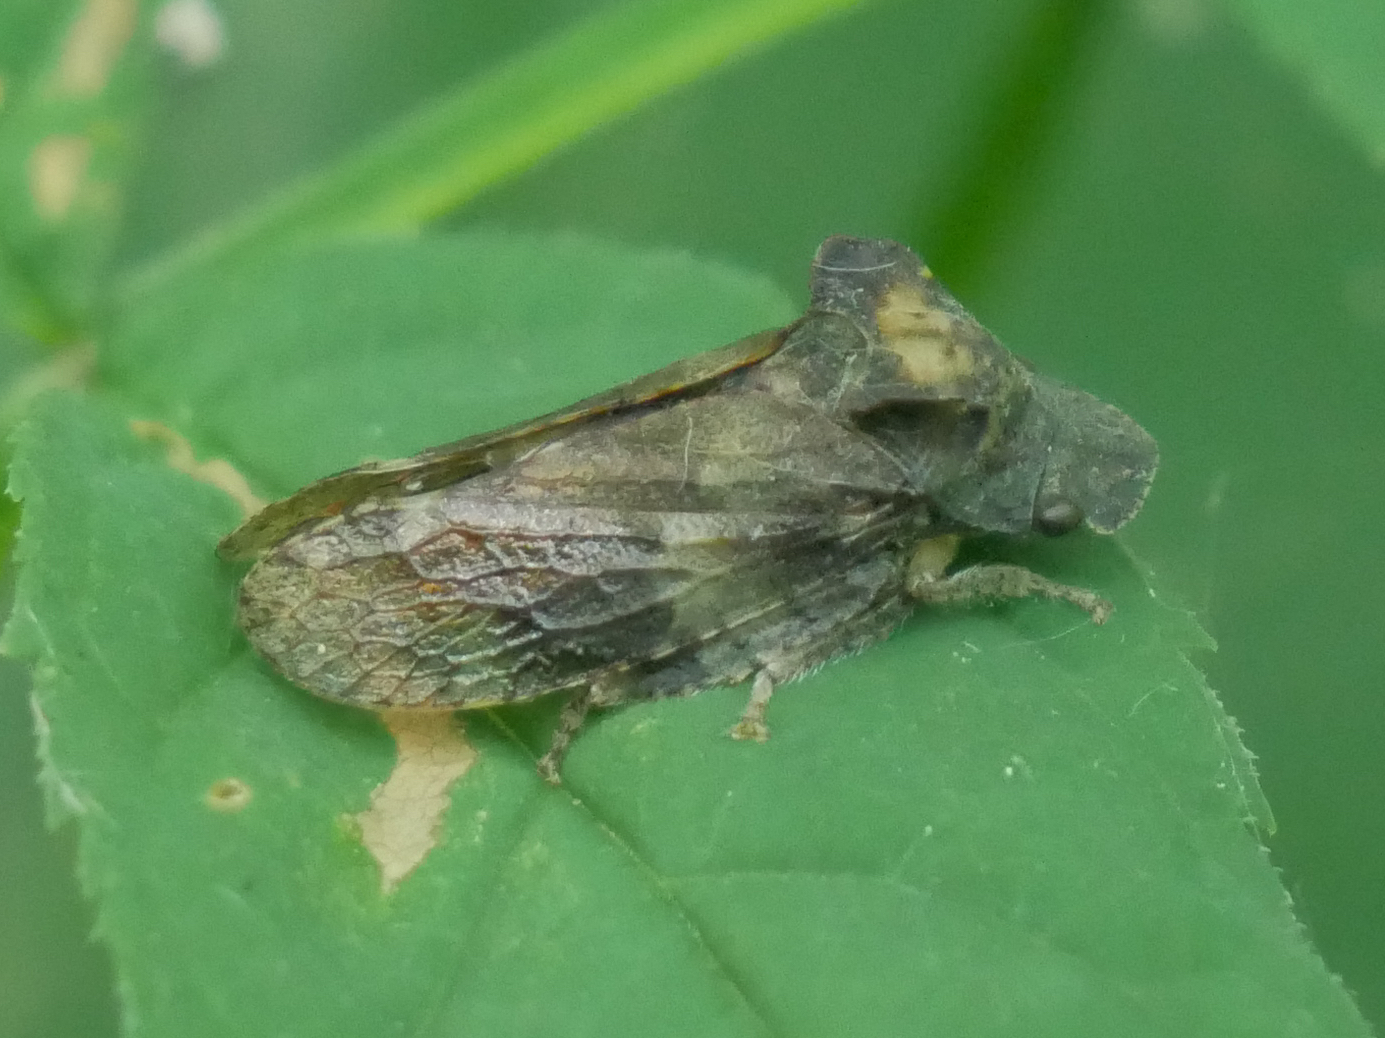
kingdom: Animalia
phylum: Arthropoda
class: Insecta
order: Hemiptera
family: Cicadellidae
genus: Ledra
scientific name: Ledra aurita
